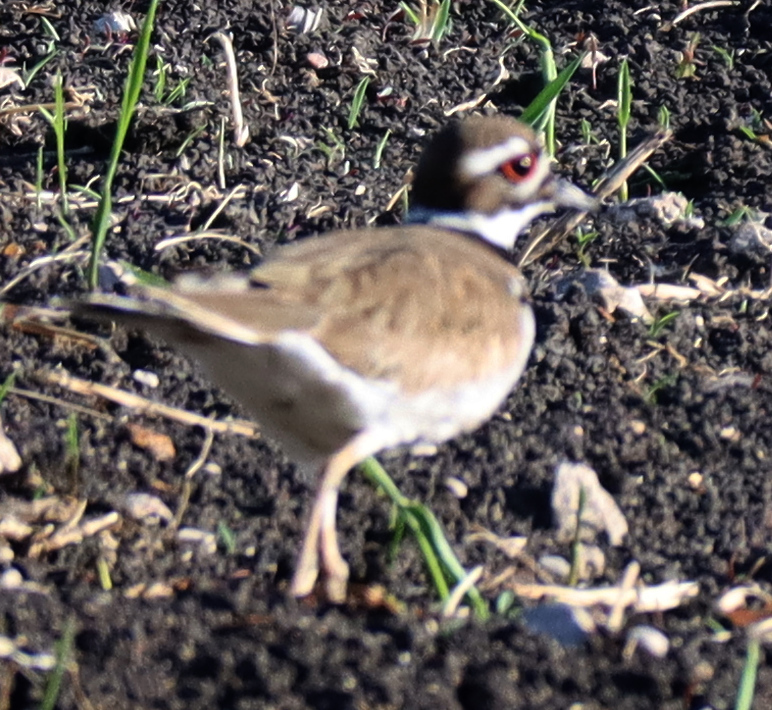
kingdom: Animalia
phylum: Chordata
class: Aves
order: Charadriiformes
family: Charadriidae
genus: Charadrius
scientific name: Charadrius vociferus
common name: Killdeer
